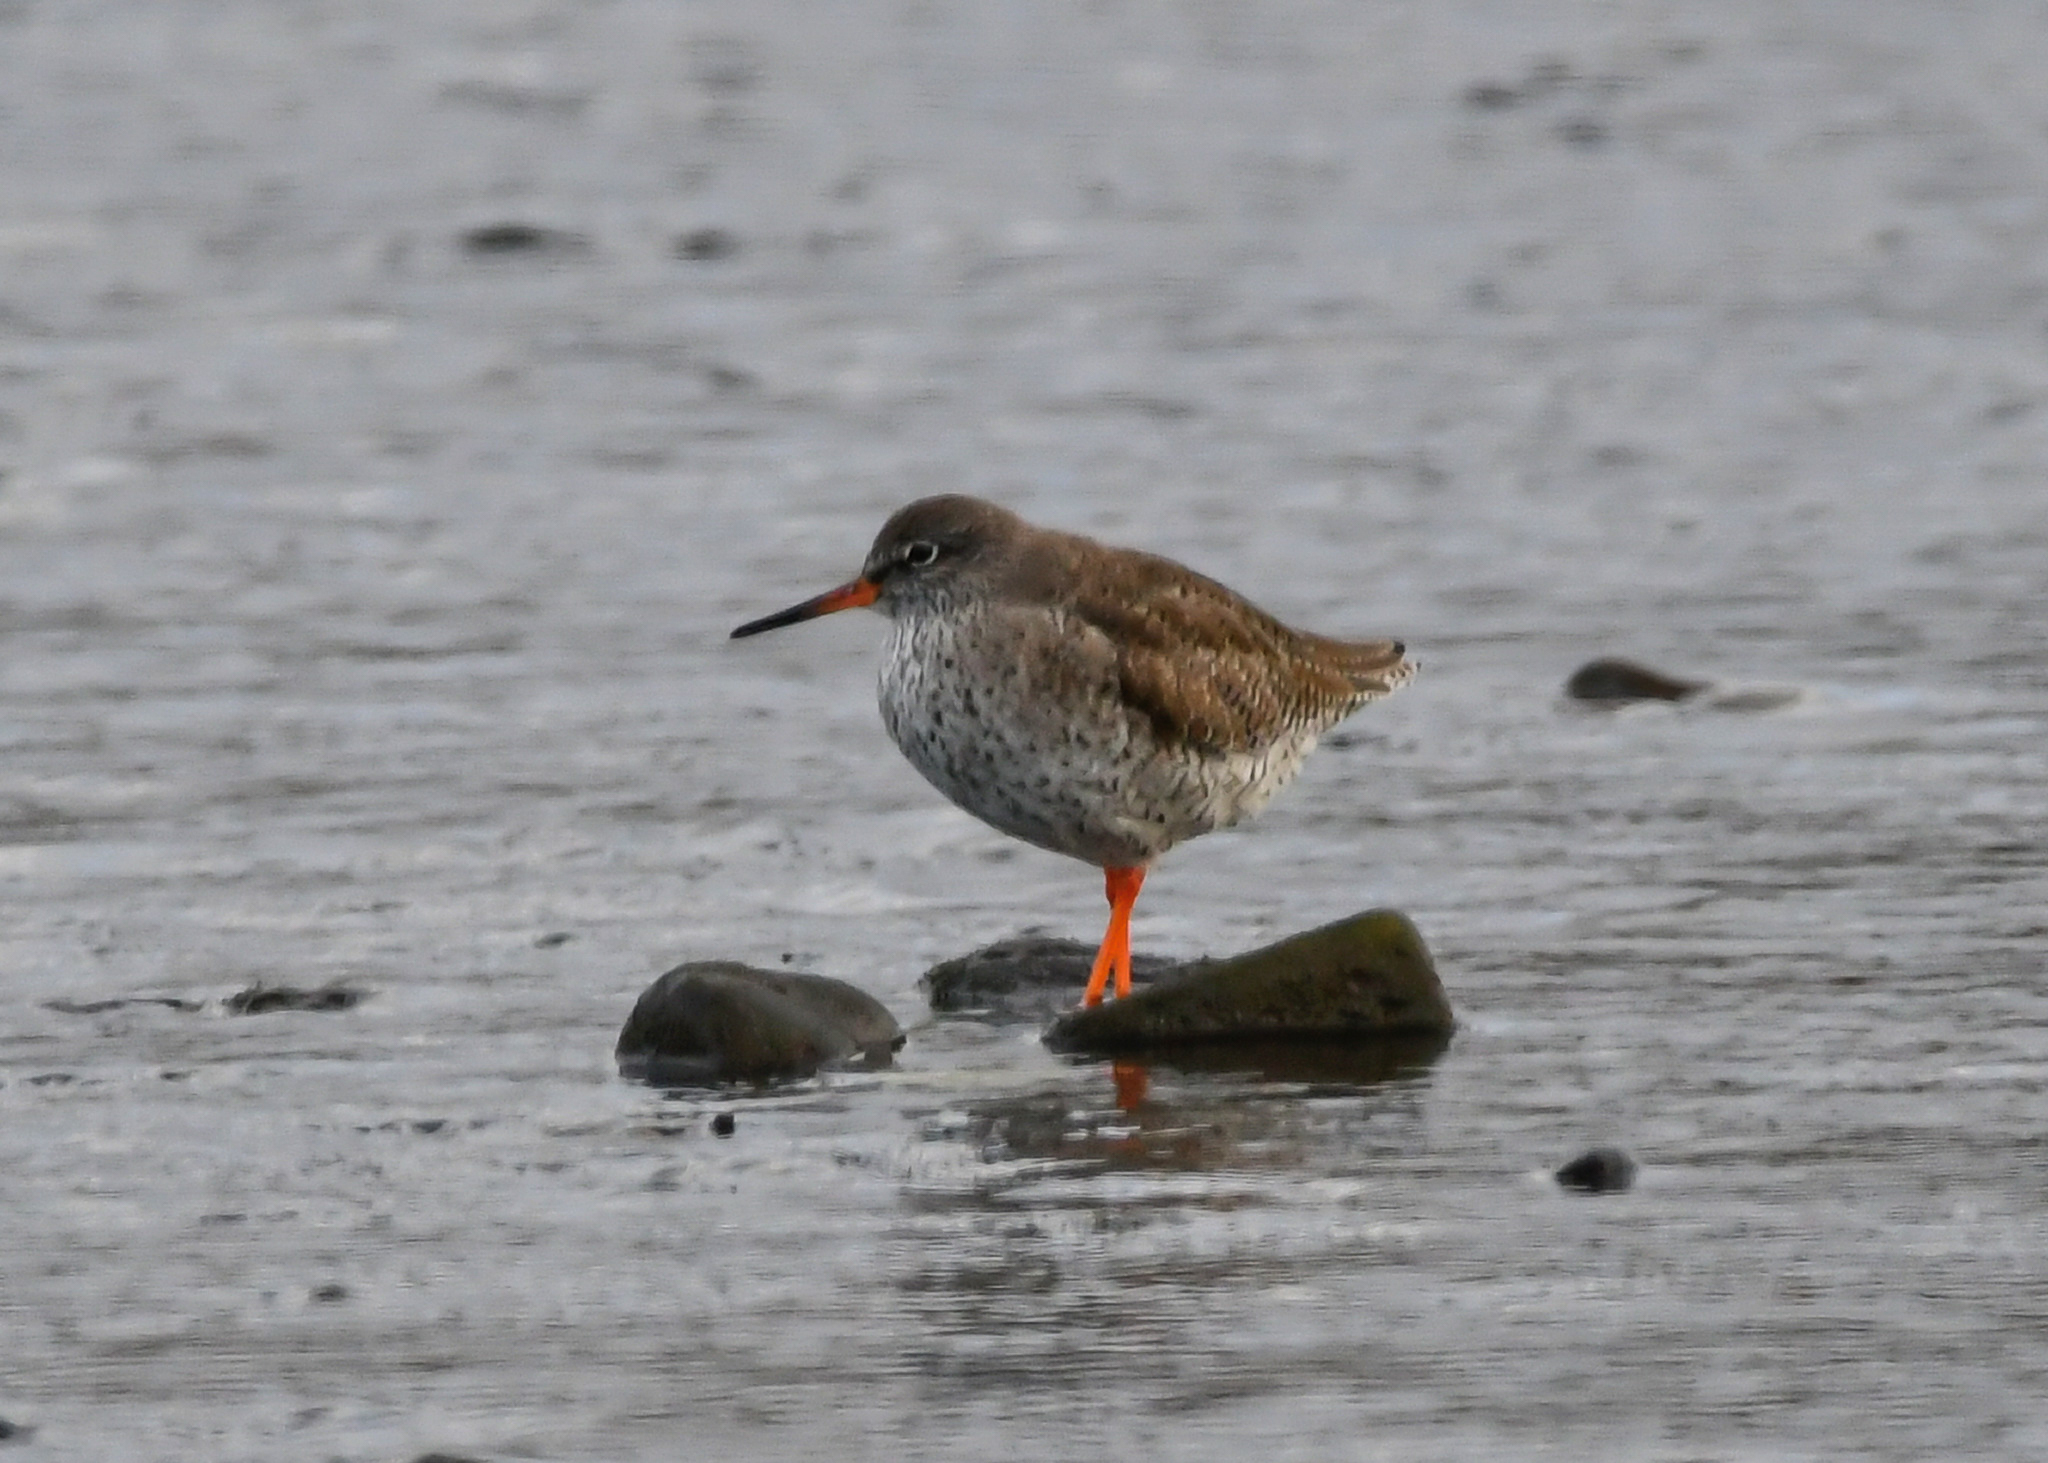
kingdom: Animalia
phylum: Chordata
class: Aves
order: Charadriiformes
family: Scolopacidae
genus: Tringa
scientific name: Tringa totanus
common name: Common redshank
